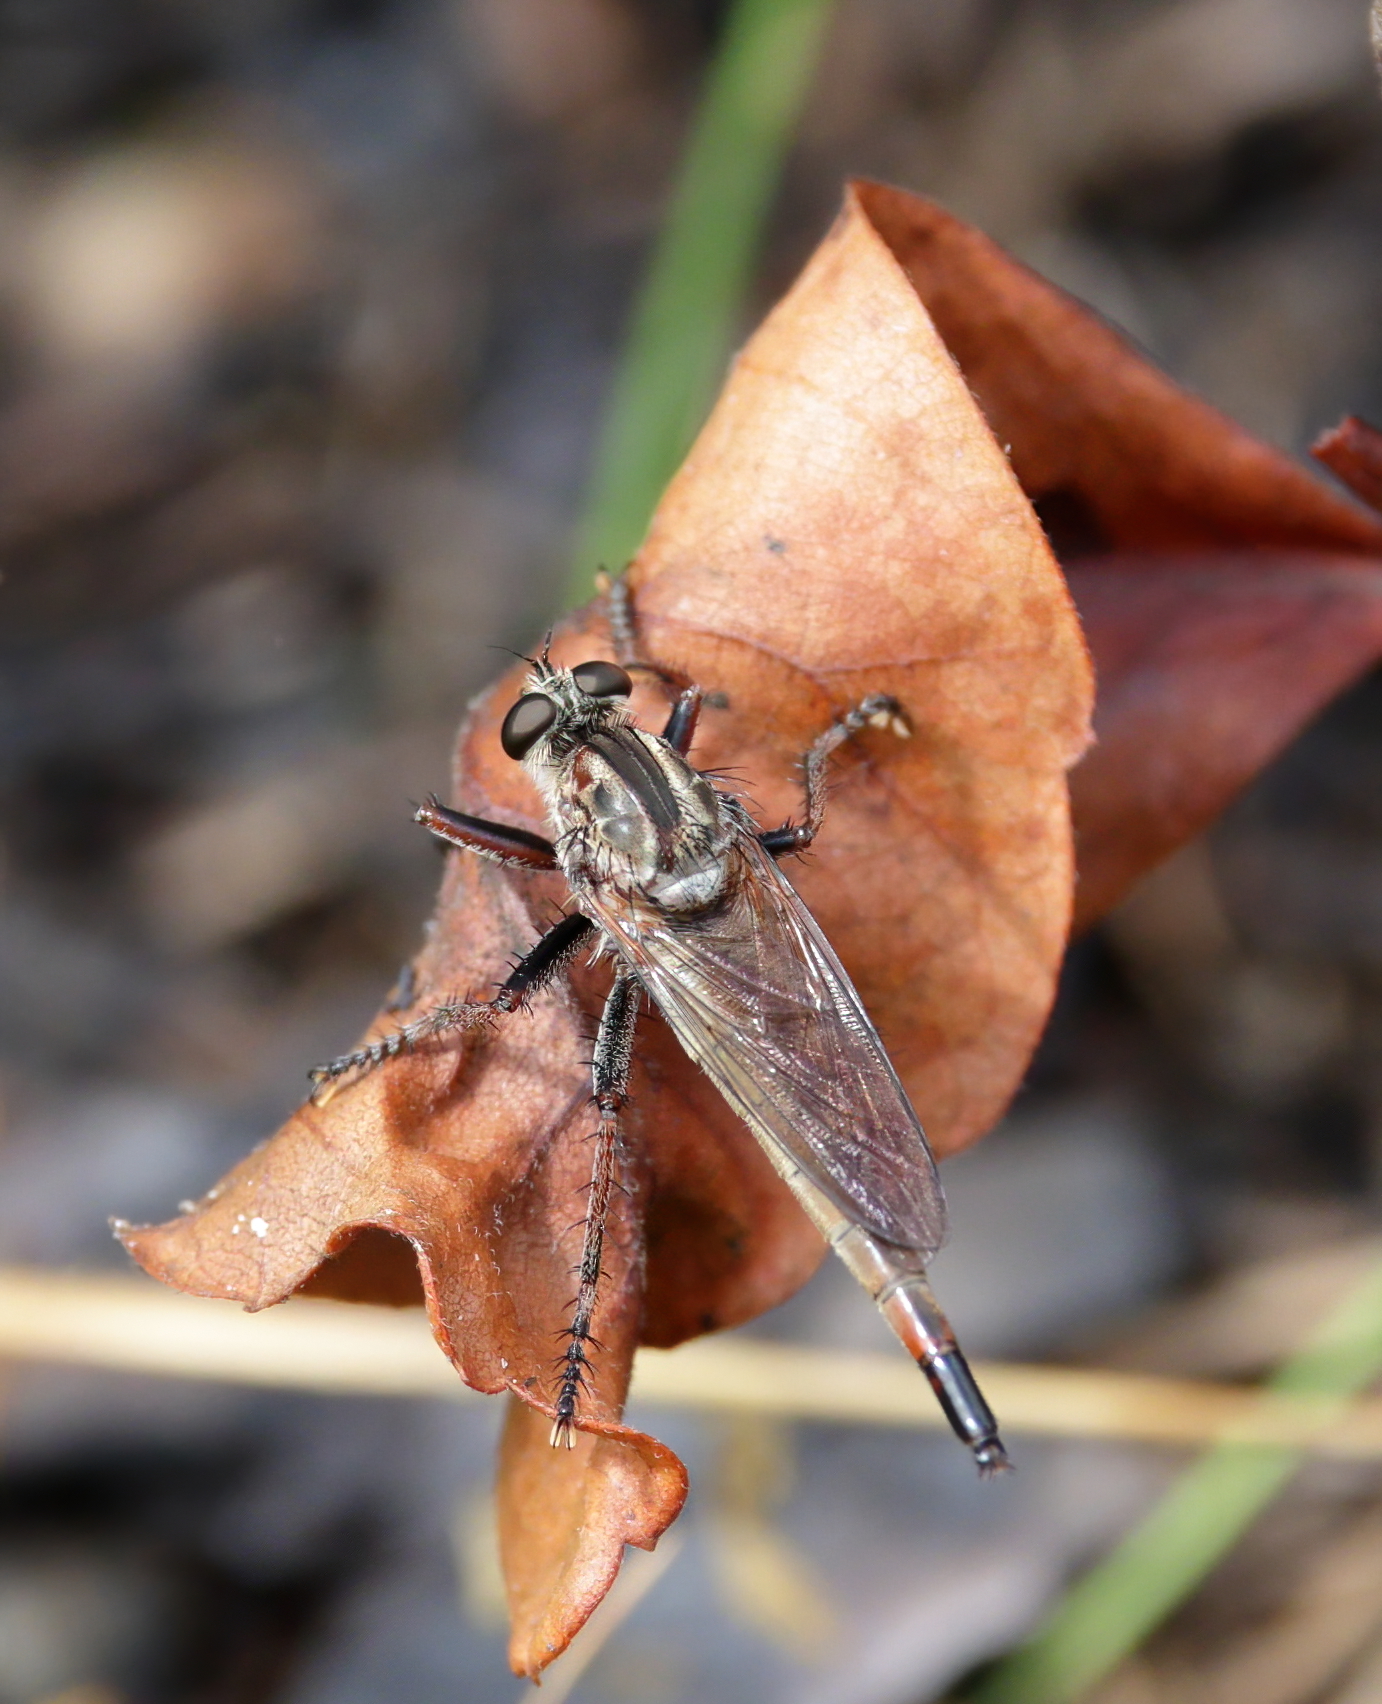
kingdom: Animalia
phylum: Arthropoda
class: Insecta
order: Diptera
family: Asilidae
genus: Proctacanthus
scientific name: Proctacanthus brevipennis
